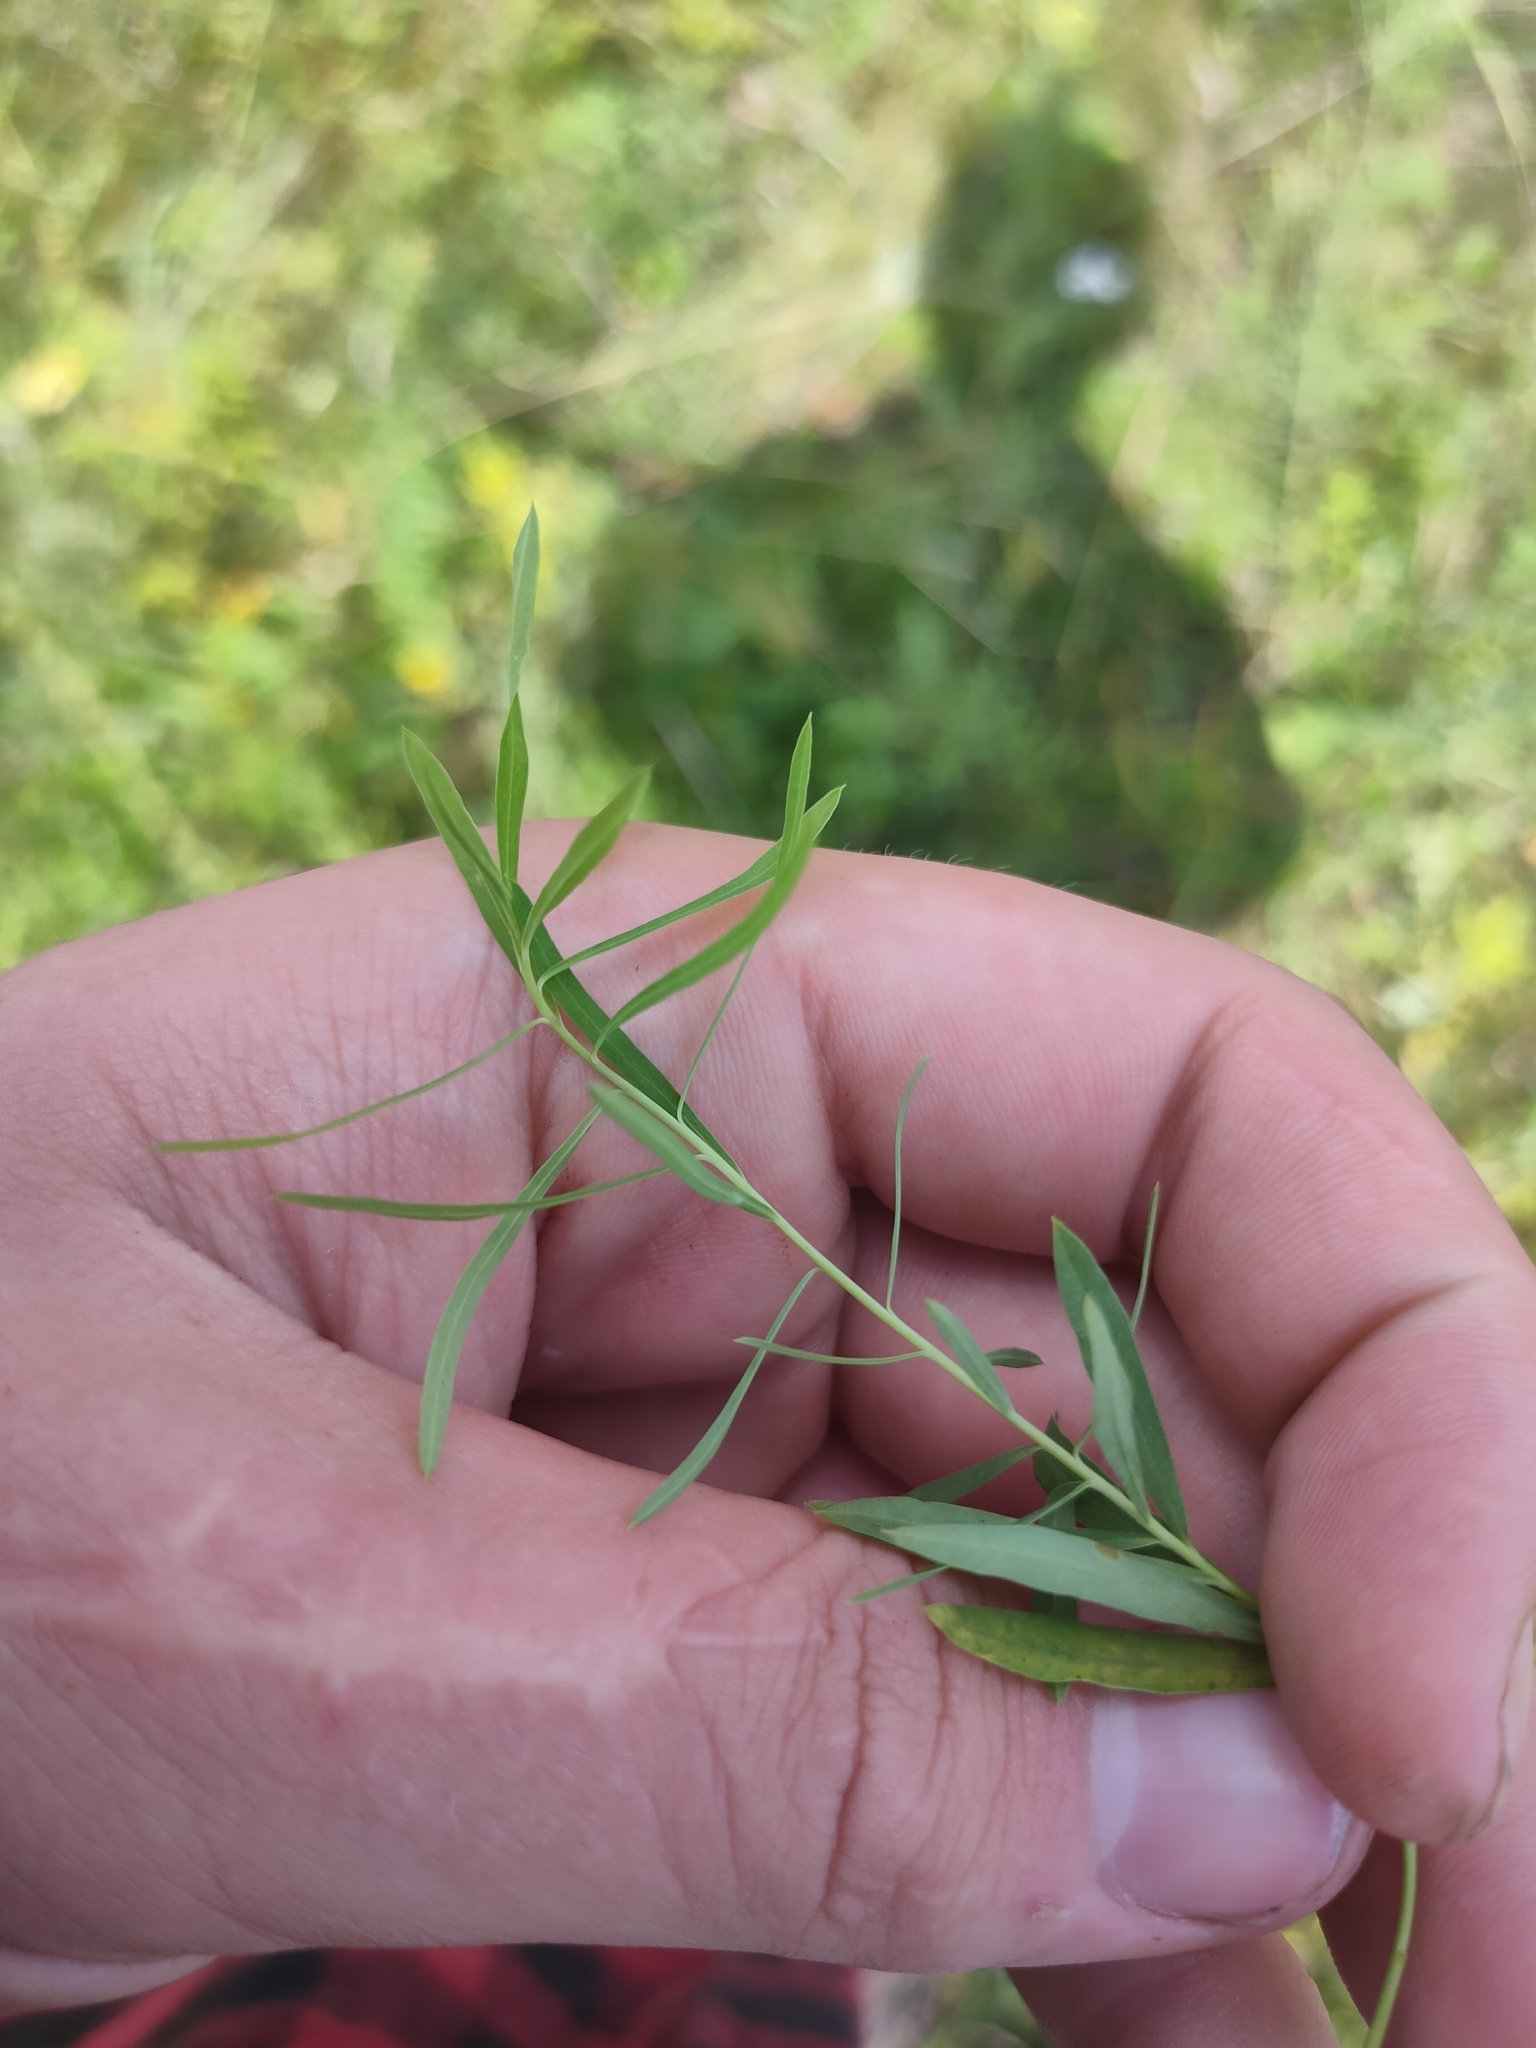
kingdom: Plantae
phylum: Tracheophyta
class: Magnoliopsida
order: Malpighiales
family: Euphorbiaceae
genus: Euphorbia
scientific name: Euphorbia virgata
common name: Leafy spurge
